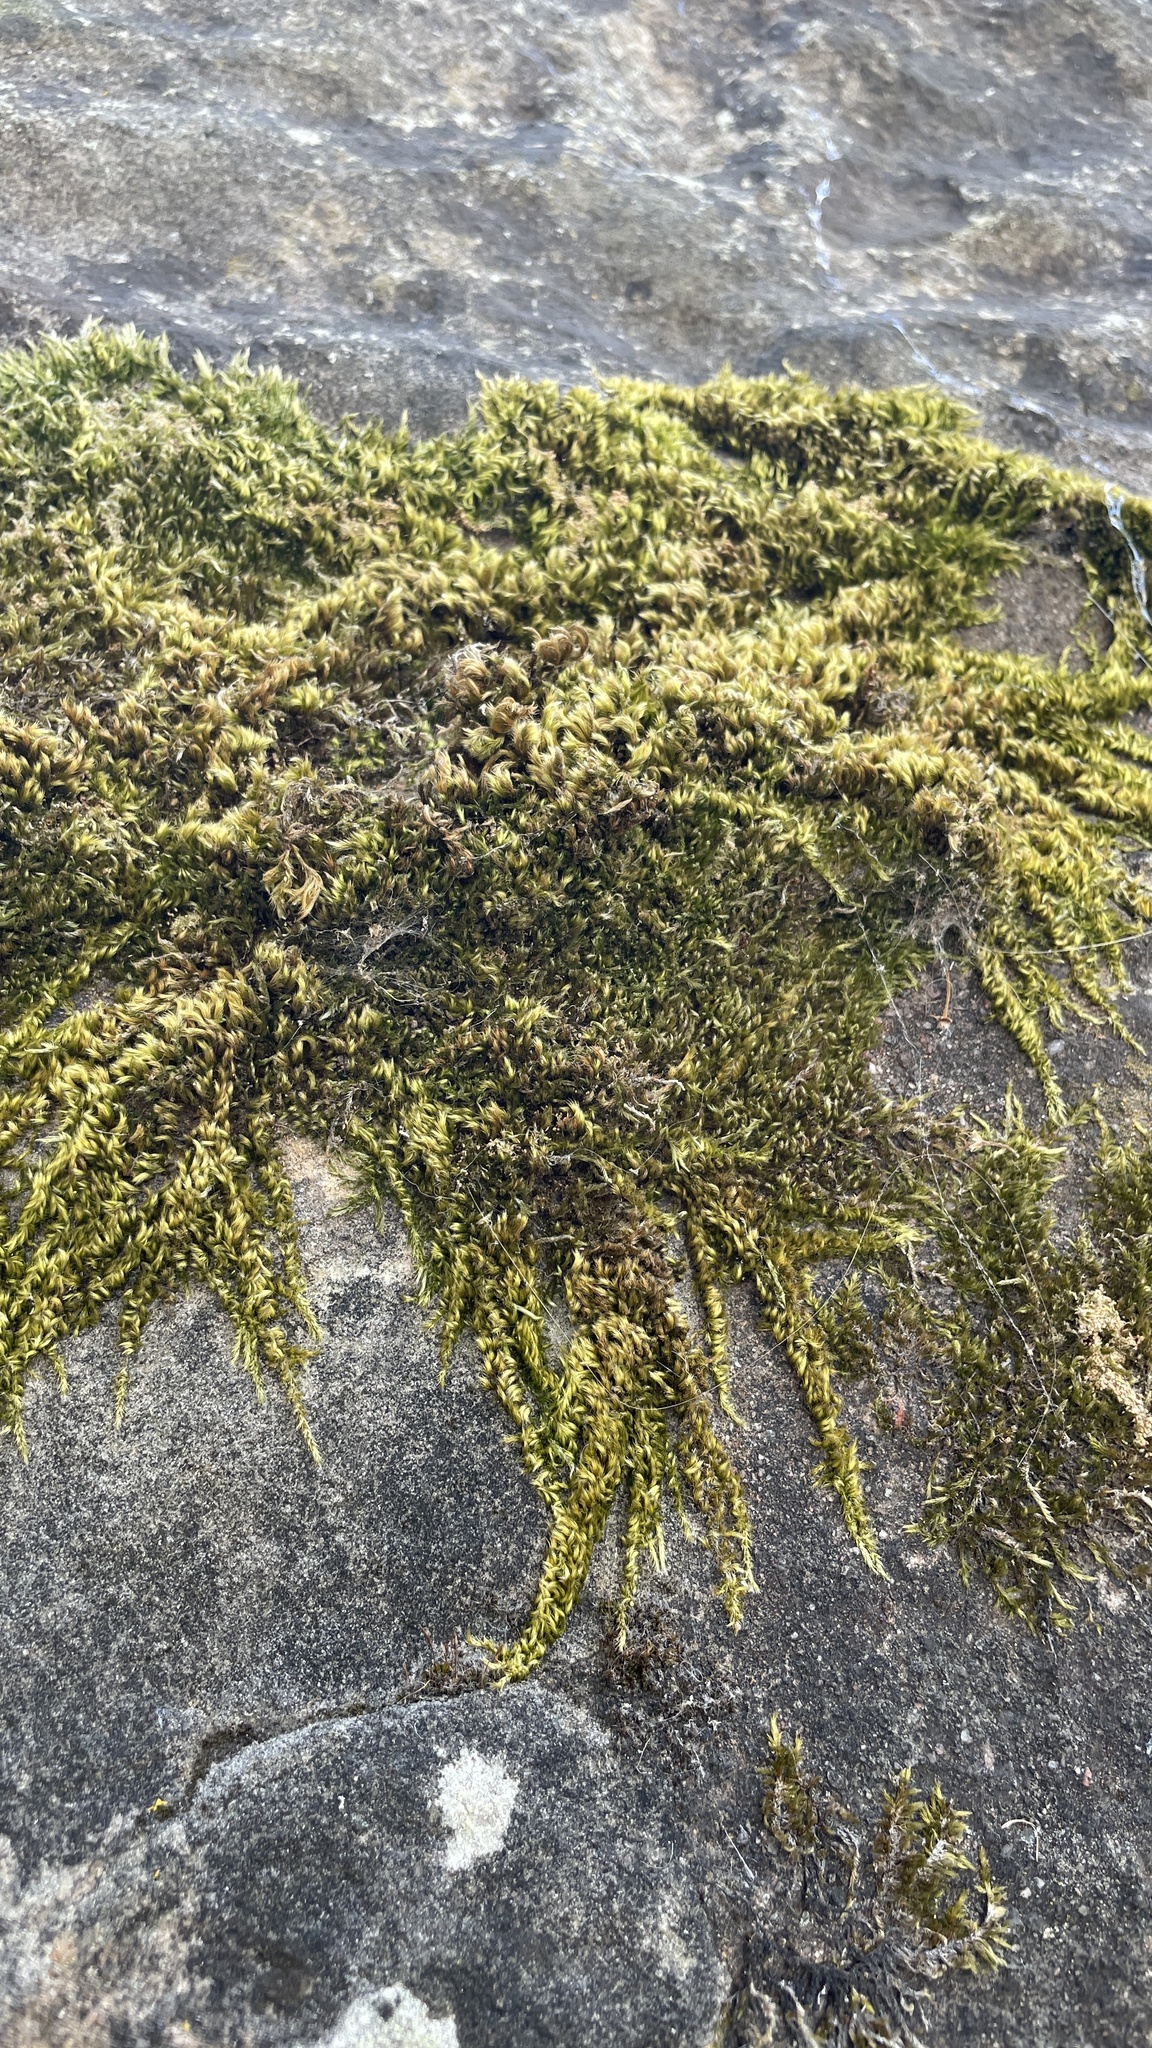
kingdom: Plantae
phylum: Bryophyta
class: Bryopsida
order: Hypnales
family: Brachytheciaceae
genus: Homalothecium
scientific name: Homalothecium sericeum
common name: Silky wall feather-moss
